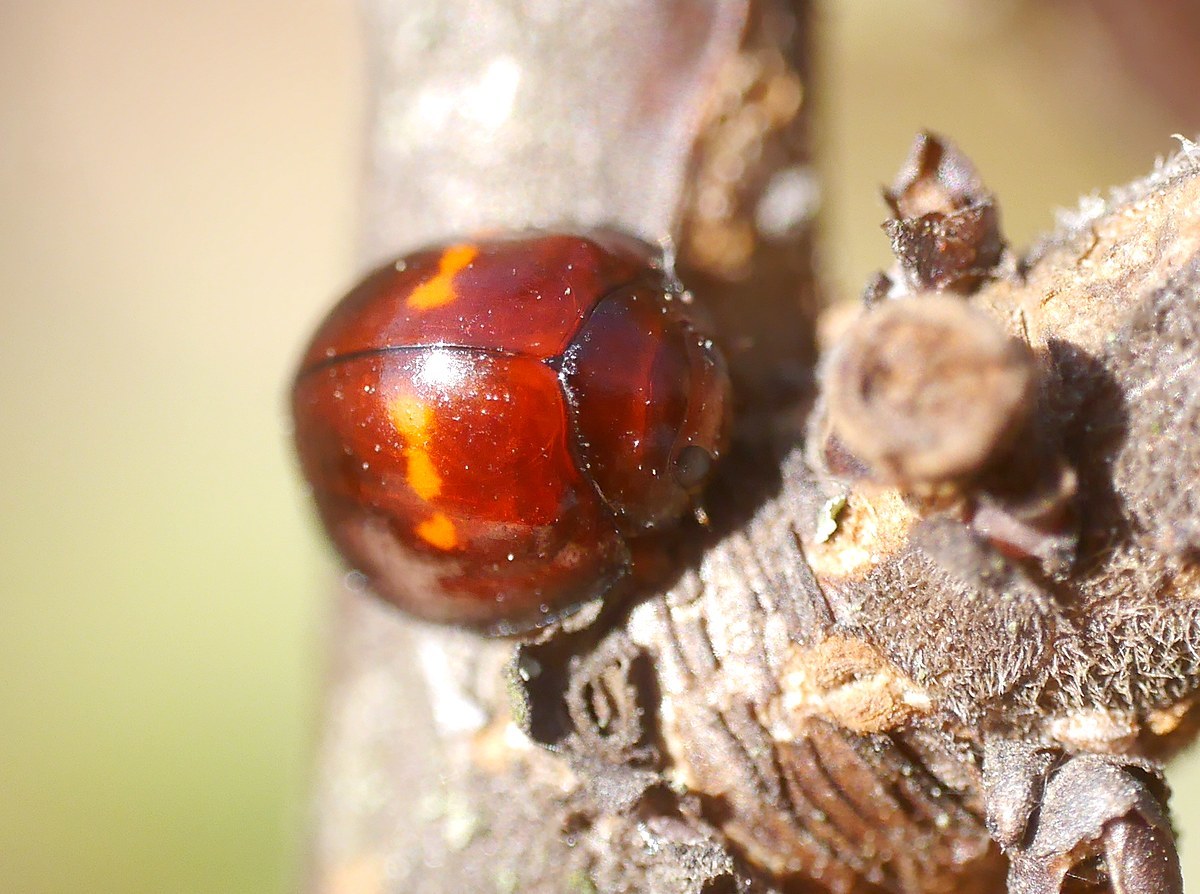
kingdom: Animalia
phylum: Arthropoda
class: Insecta
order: Coleoptera
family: Coccinellidae
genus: Chilocorus
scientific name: Chilocorus bipustulatus
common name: Heather ladybird
